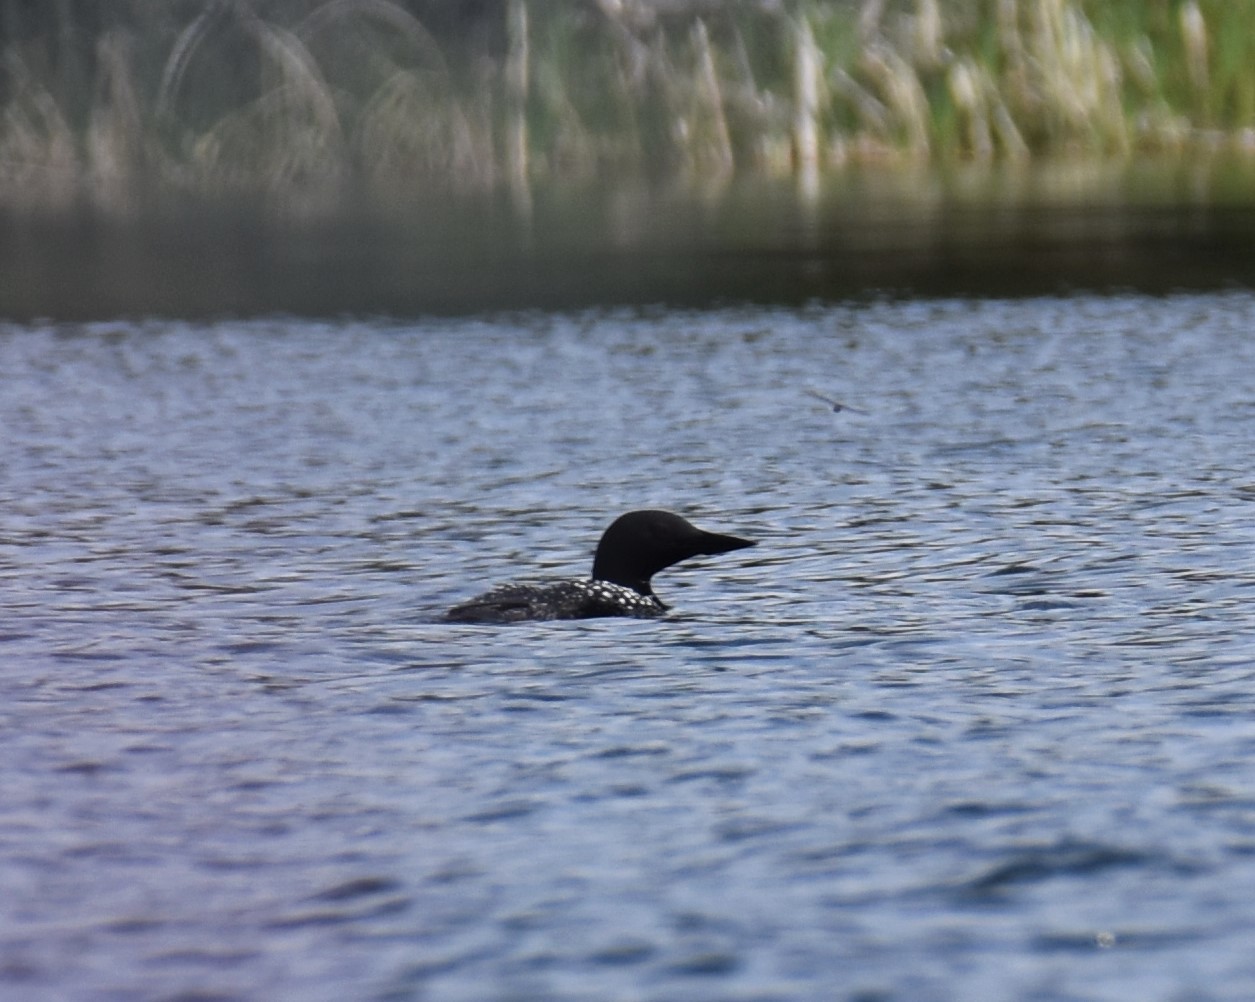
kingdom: Animalia
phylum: Chordata
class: Aves
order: Gaviiformes
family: Gaviidae
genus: Gavia
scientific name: Gavia immer
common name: Common loon
